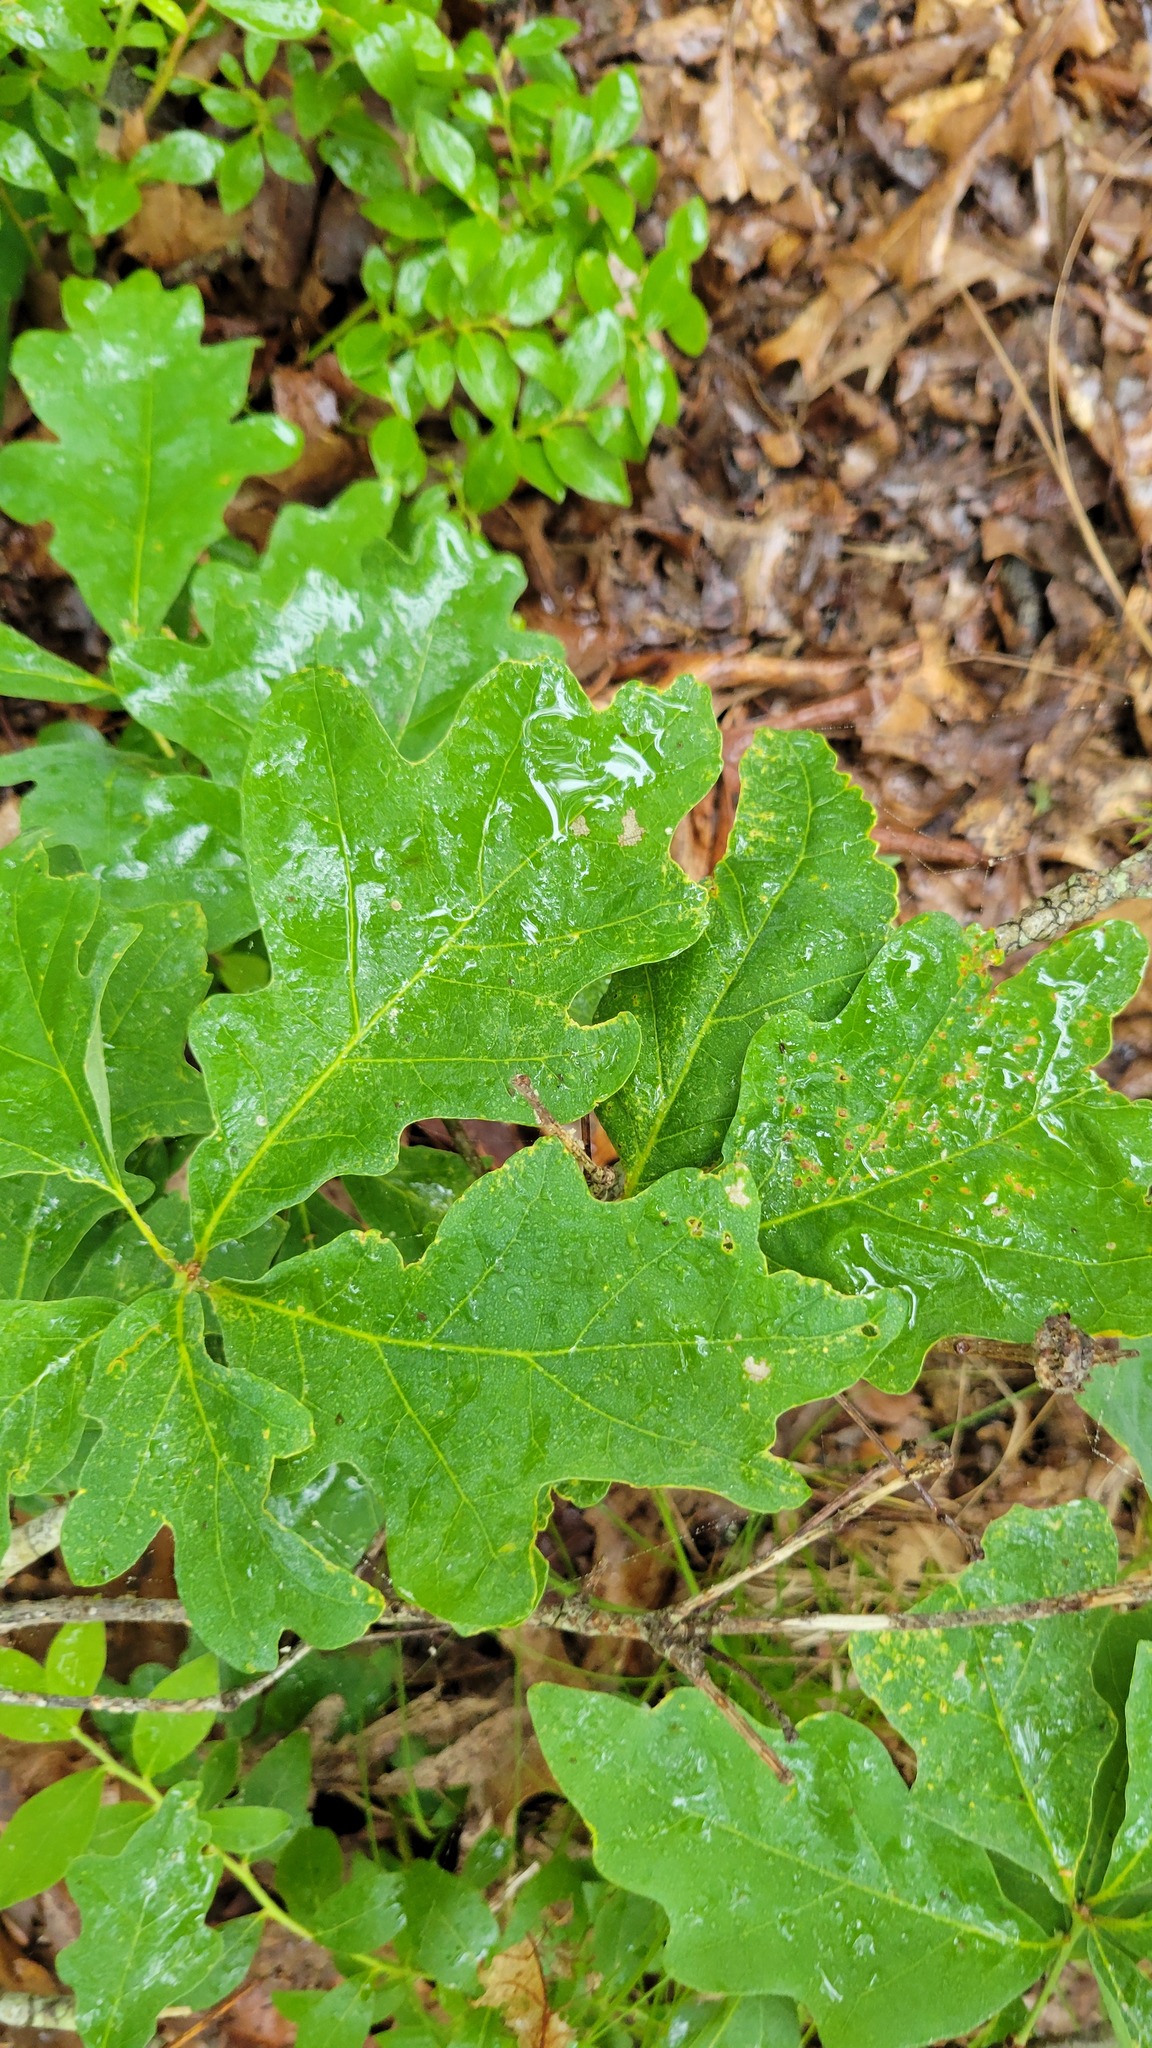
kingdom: Plantae
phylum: Tracheophyta
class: Magnoliopsida
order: Fagales
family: Fagaceae
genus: Quercus
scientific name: Quercus alba
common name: White oak
